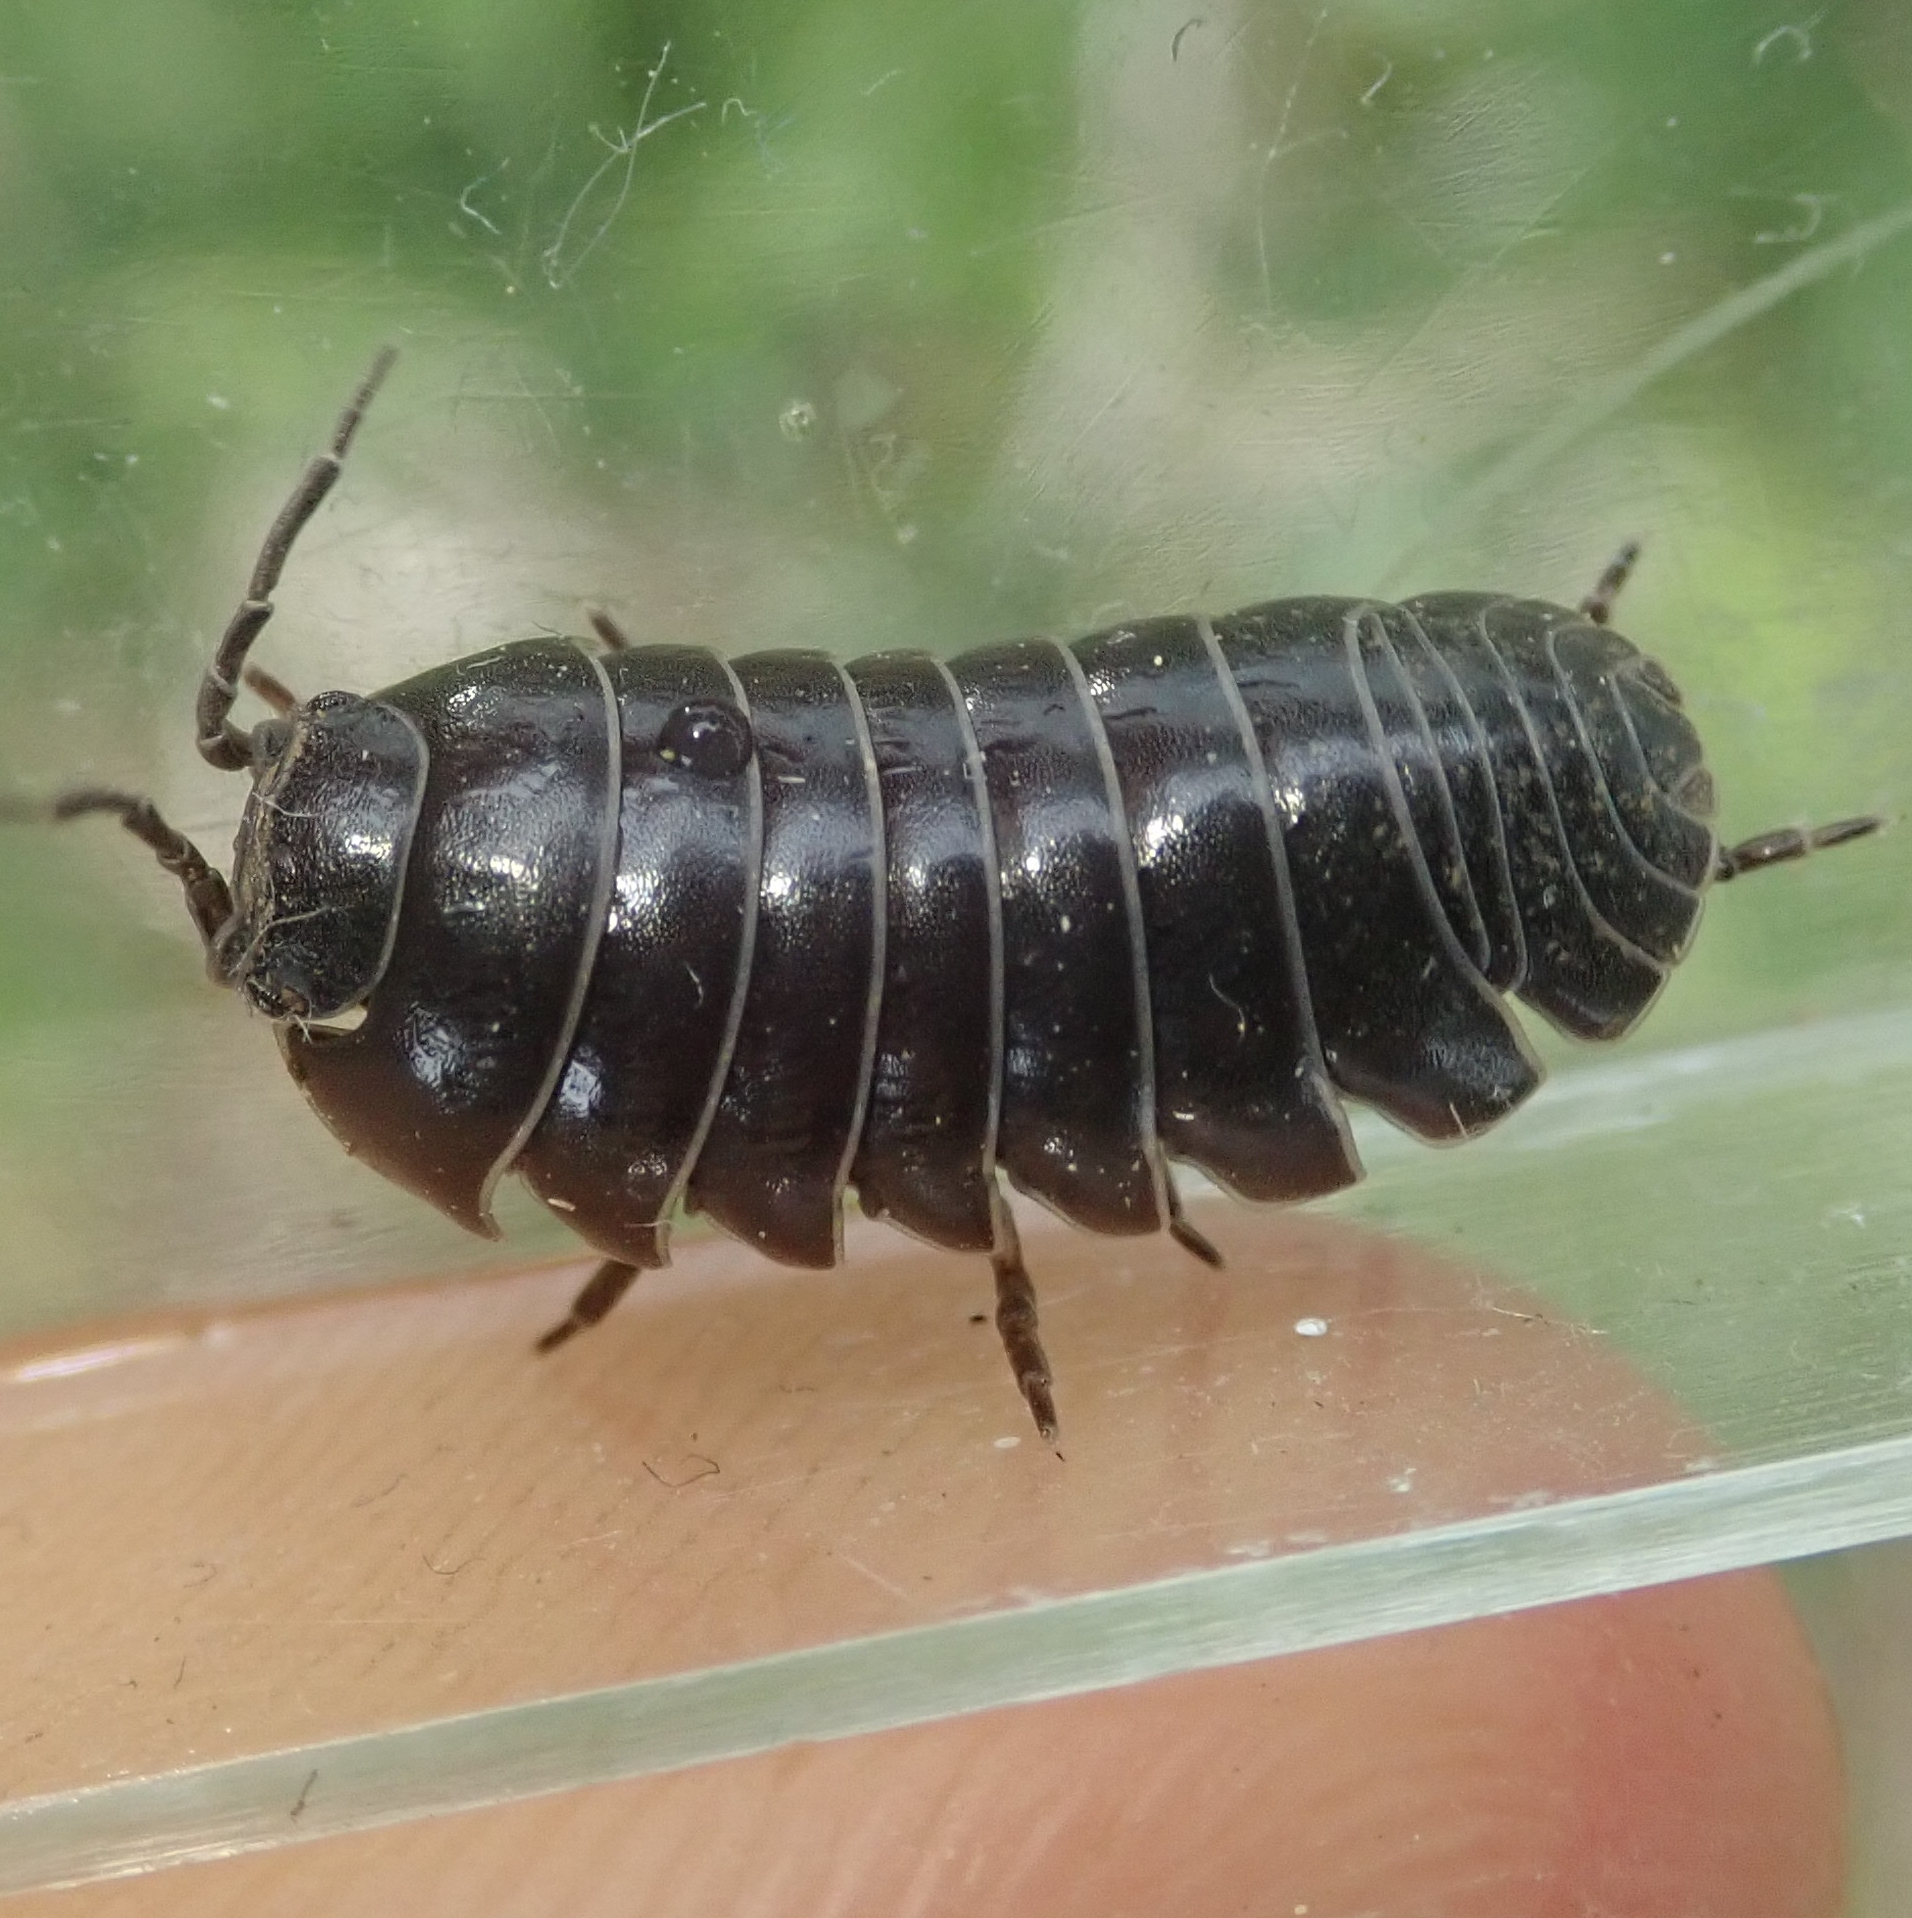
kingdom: Animalia
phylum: Arthropoda
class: Malacostraca
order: Isopoda
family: Armadillidiidae
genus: Armadillidium
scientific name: Armadillidium vulgare
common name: Common pill woodlouse
